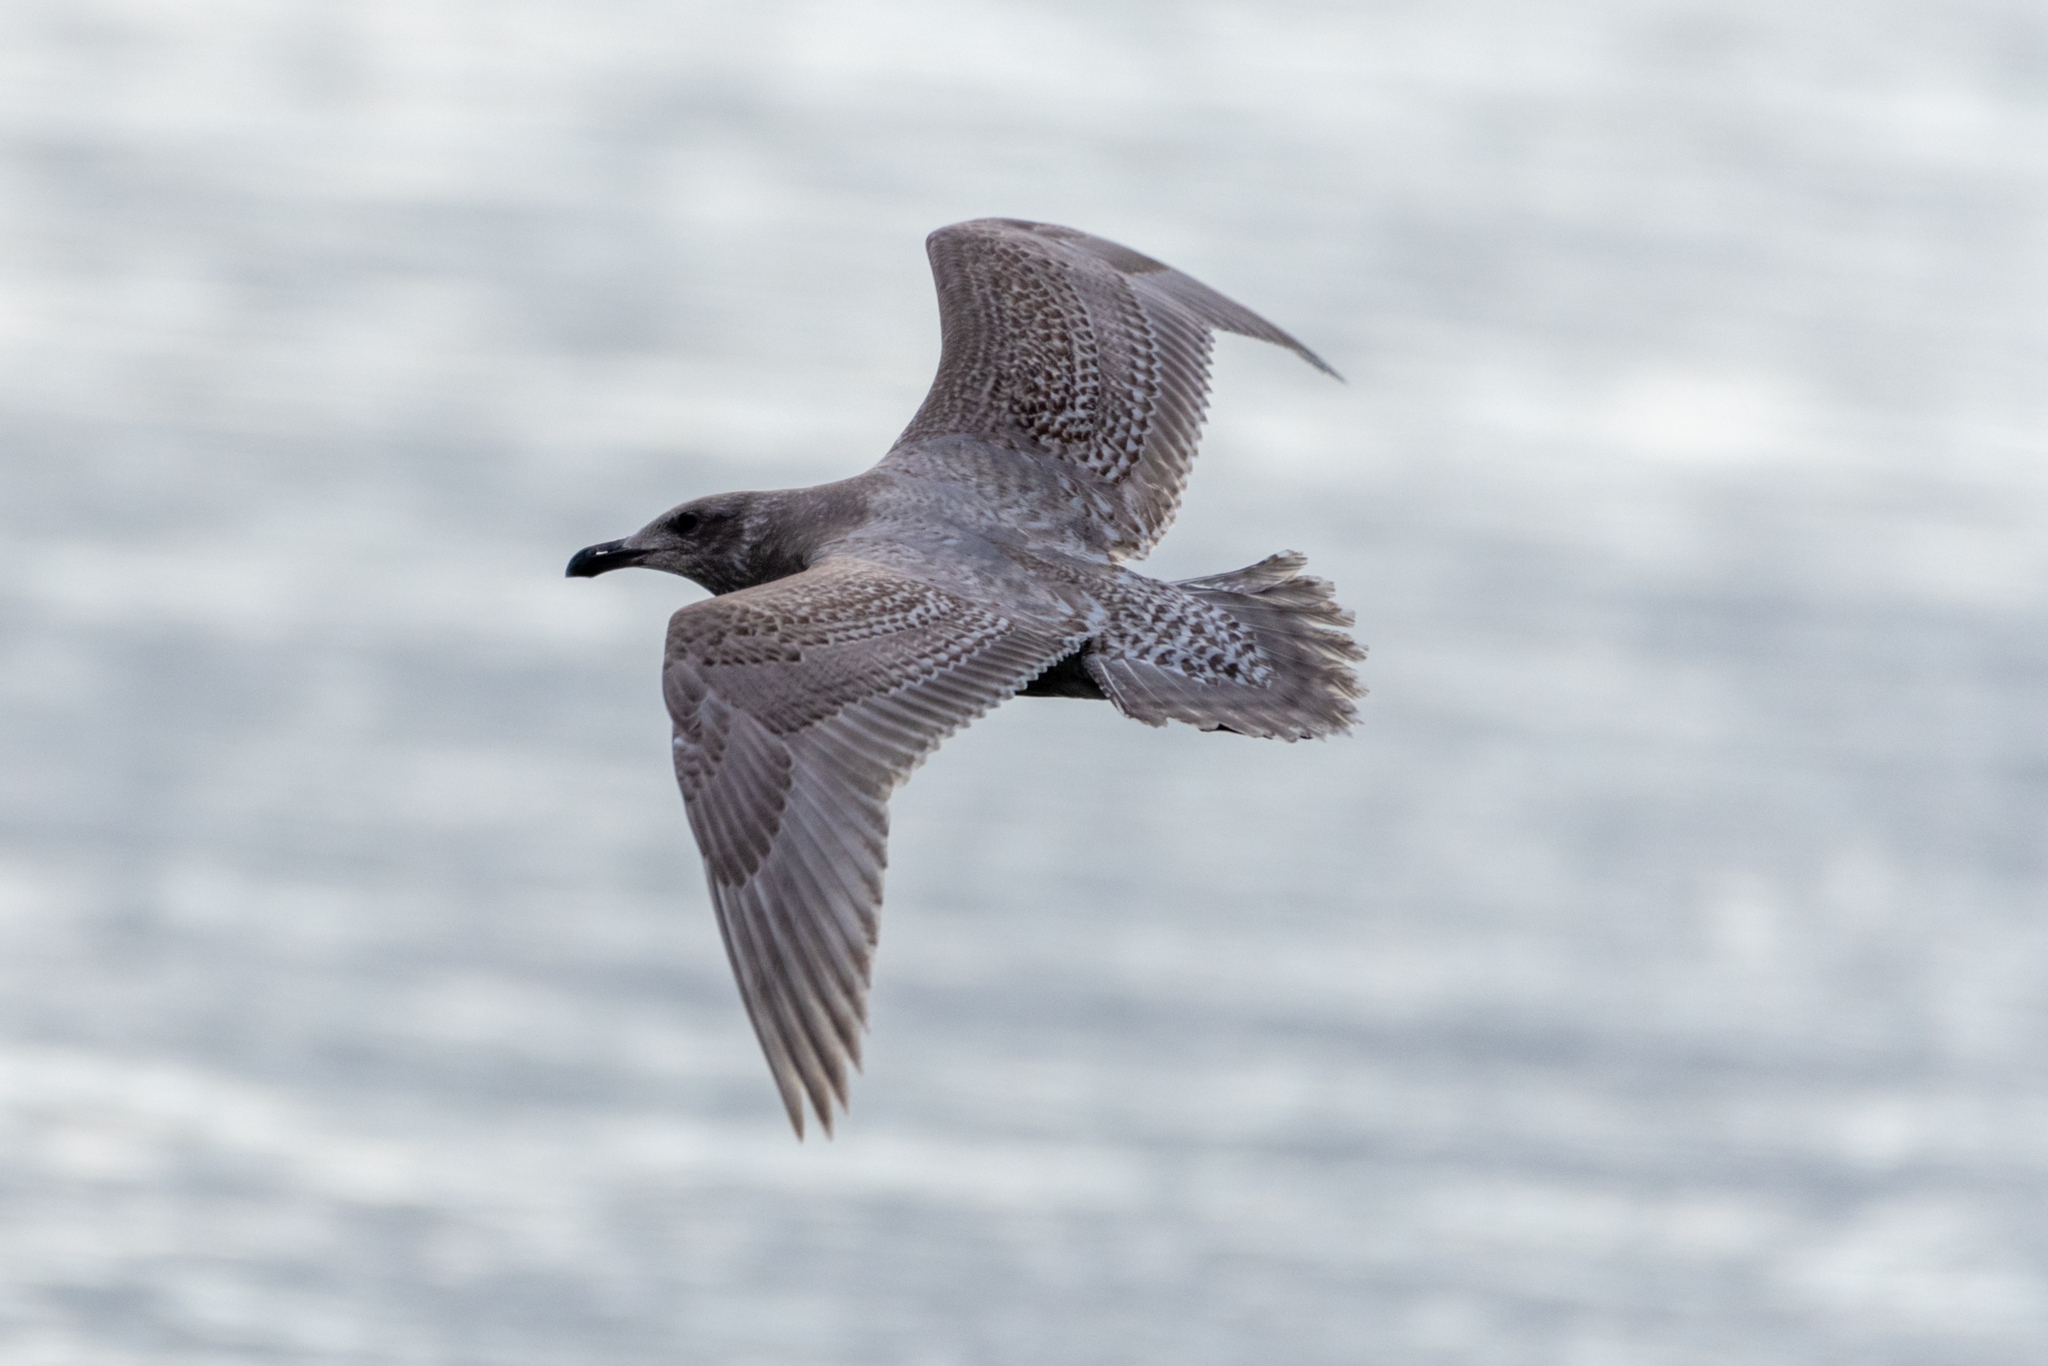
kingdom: Animalia
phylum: Chordata
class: Aves
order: Charadriiformes
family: Laridae
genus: Larus
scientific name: Larus glaucescens
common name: Glaucous-winged gull
